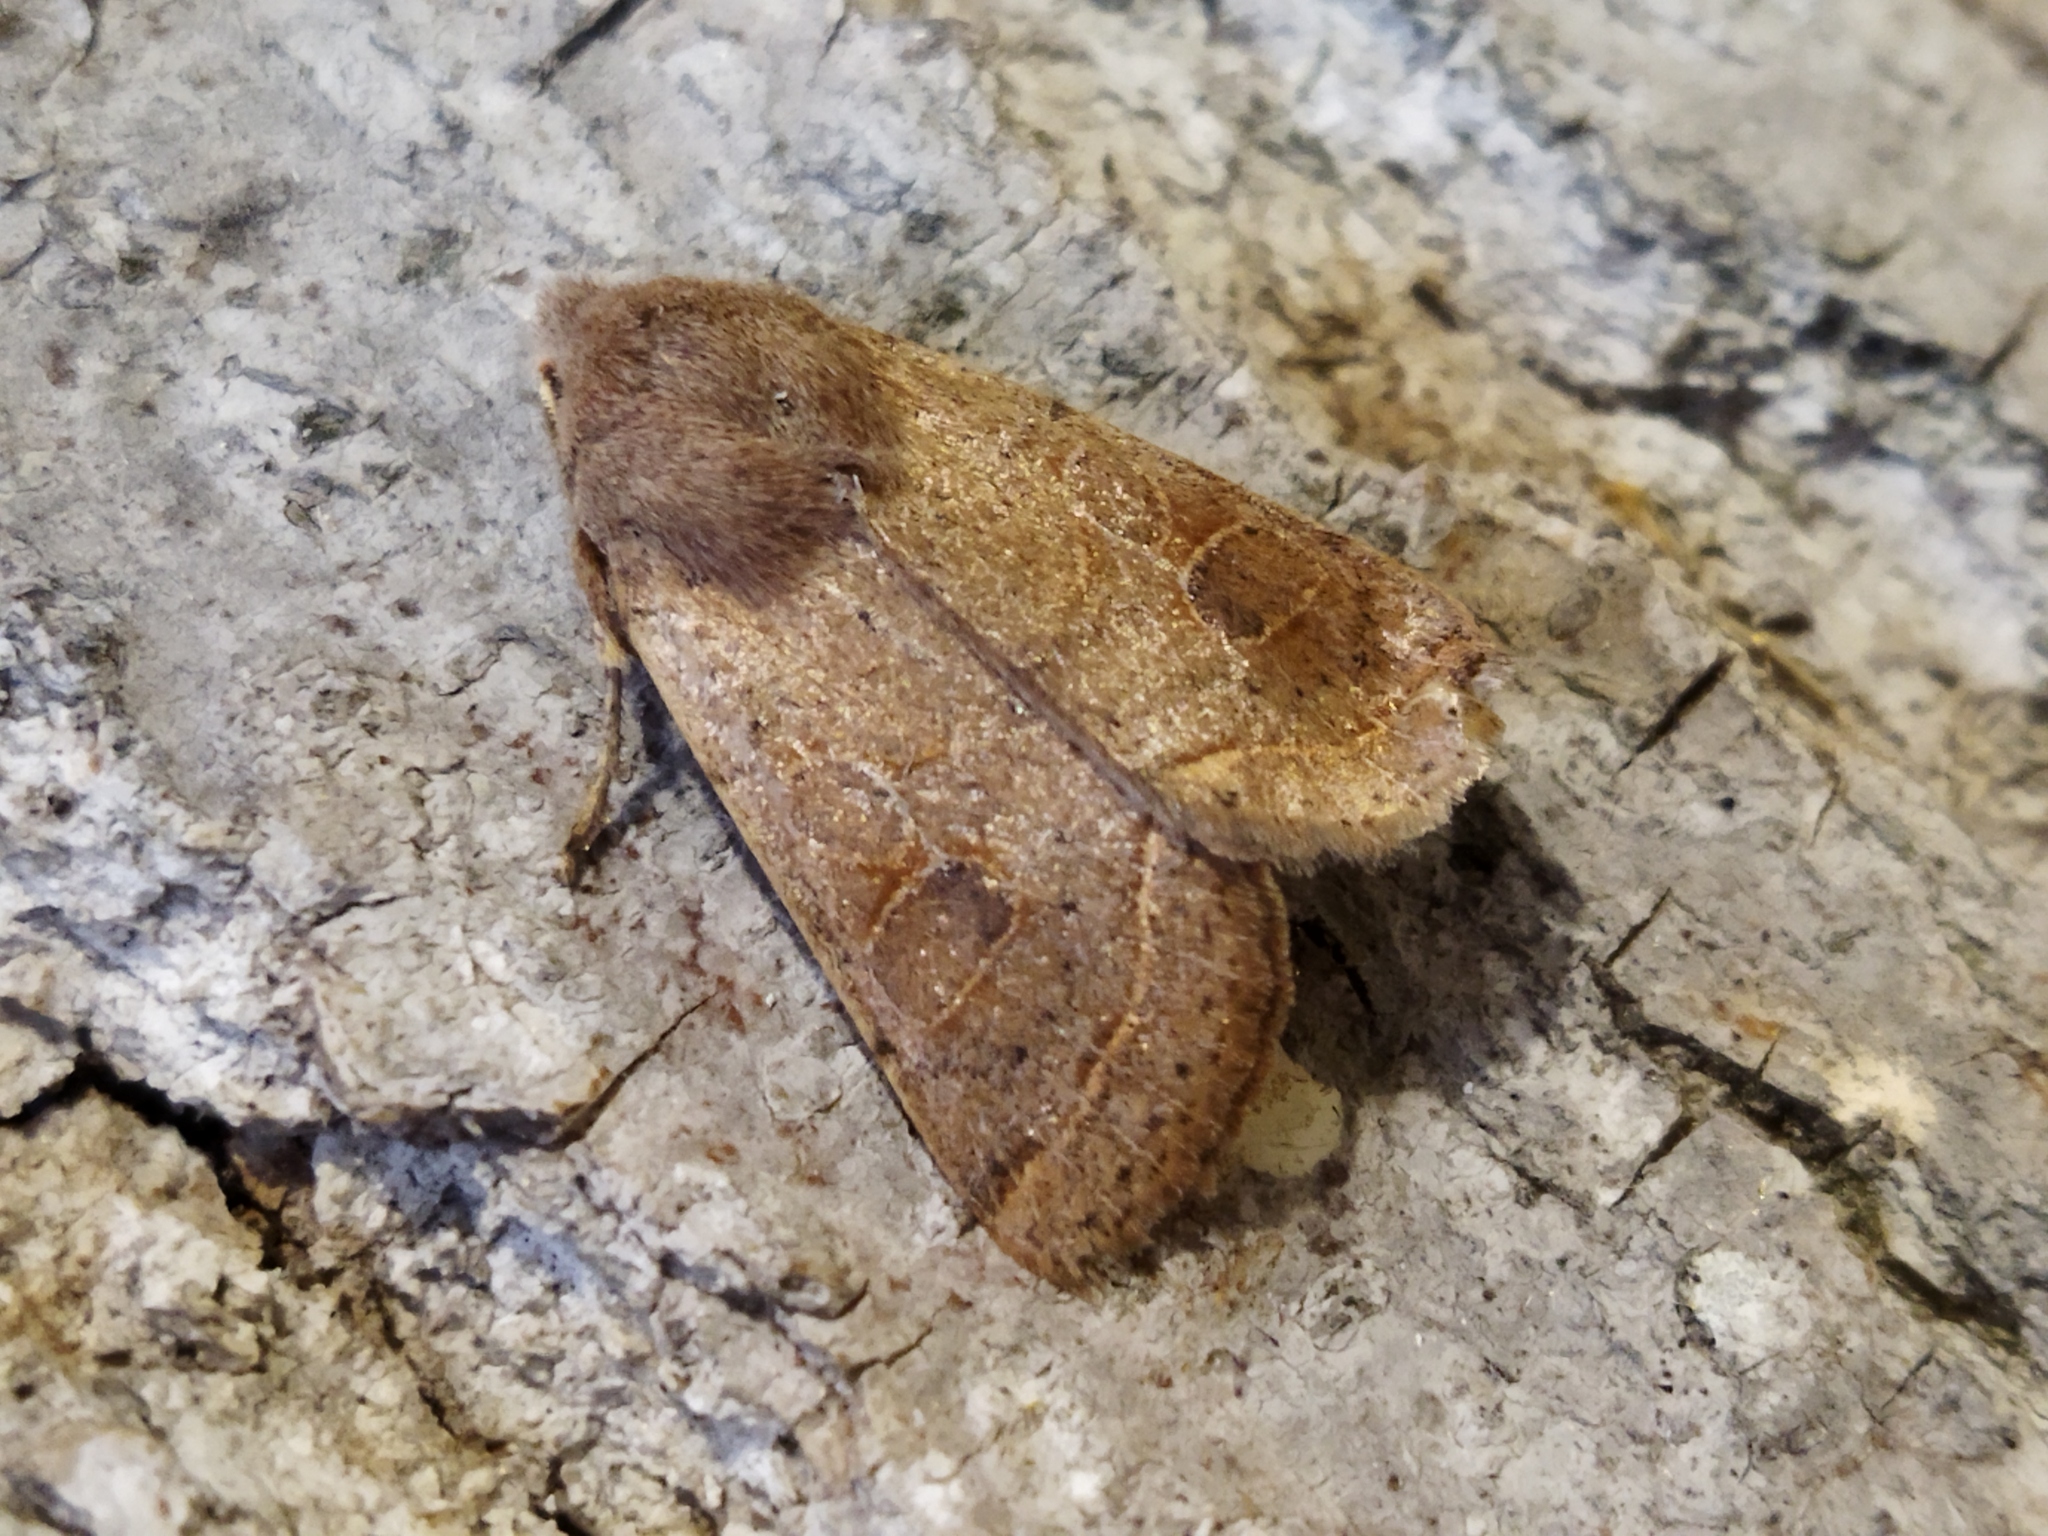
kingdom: Animalia
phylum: Arthropoda
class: Insecta
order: Lepidoptera
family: Noctuidae
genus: Orthosia
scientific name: Orthosia cerasi
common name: Common quaker
